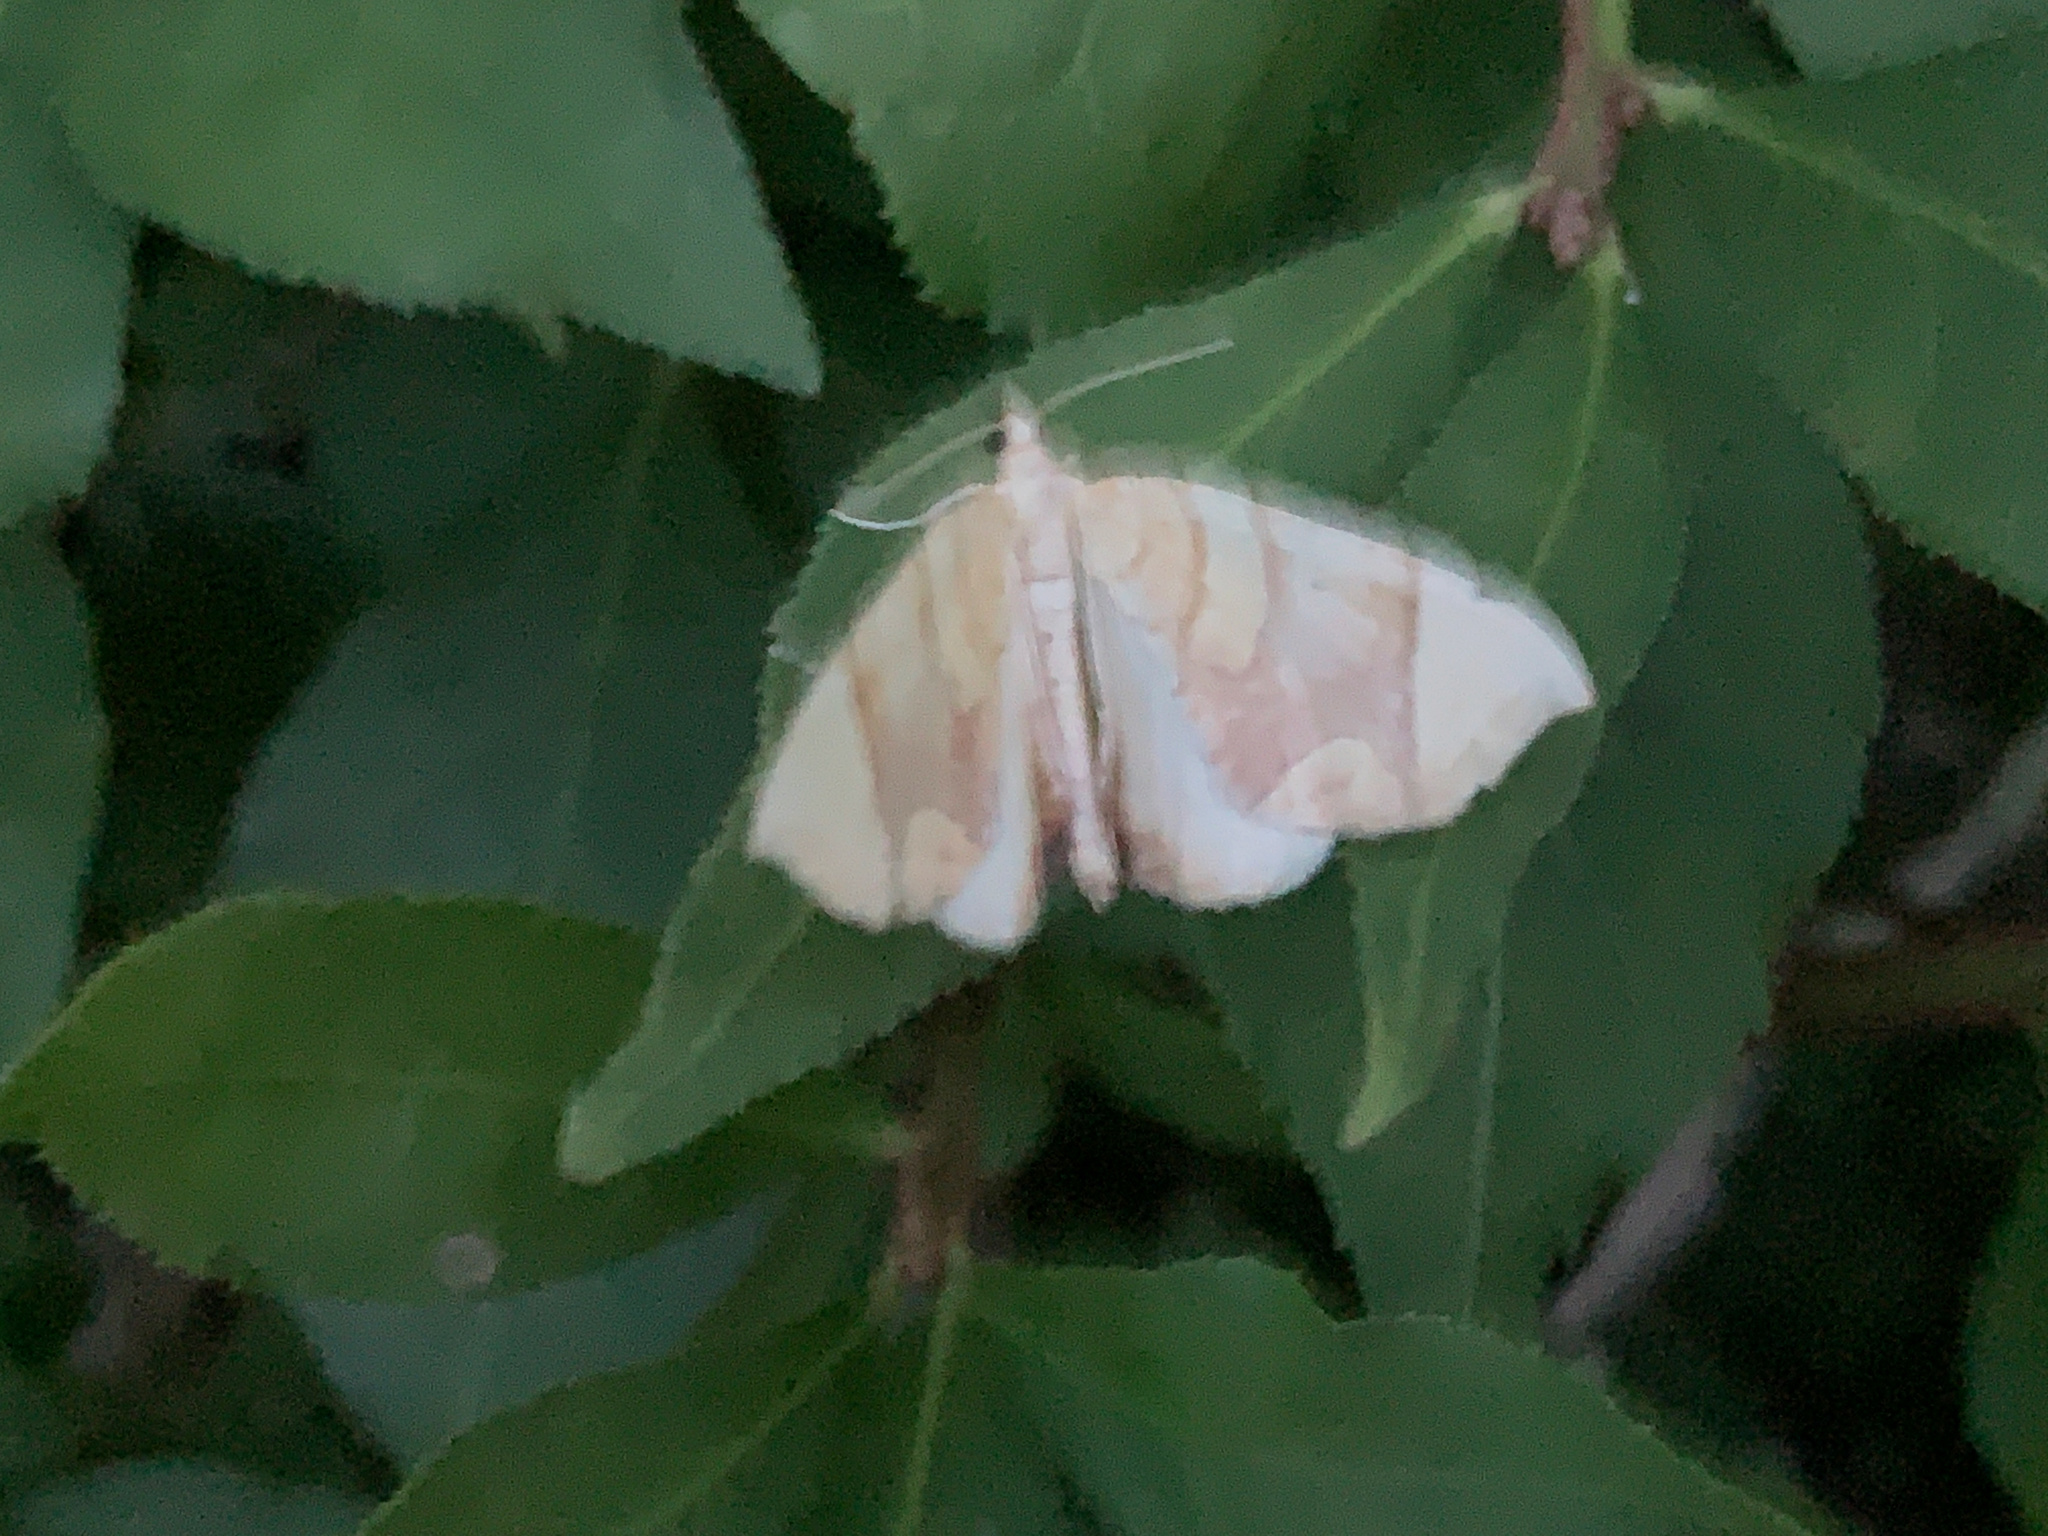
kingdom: Animalia
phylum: Arthropoda
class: Insecta
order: Lepidoptera
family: Geometridae
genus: Eulithis
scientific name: Eulithis diversilineata
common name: Grapevine looper
